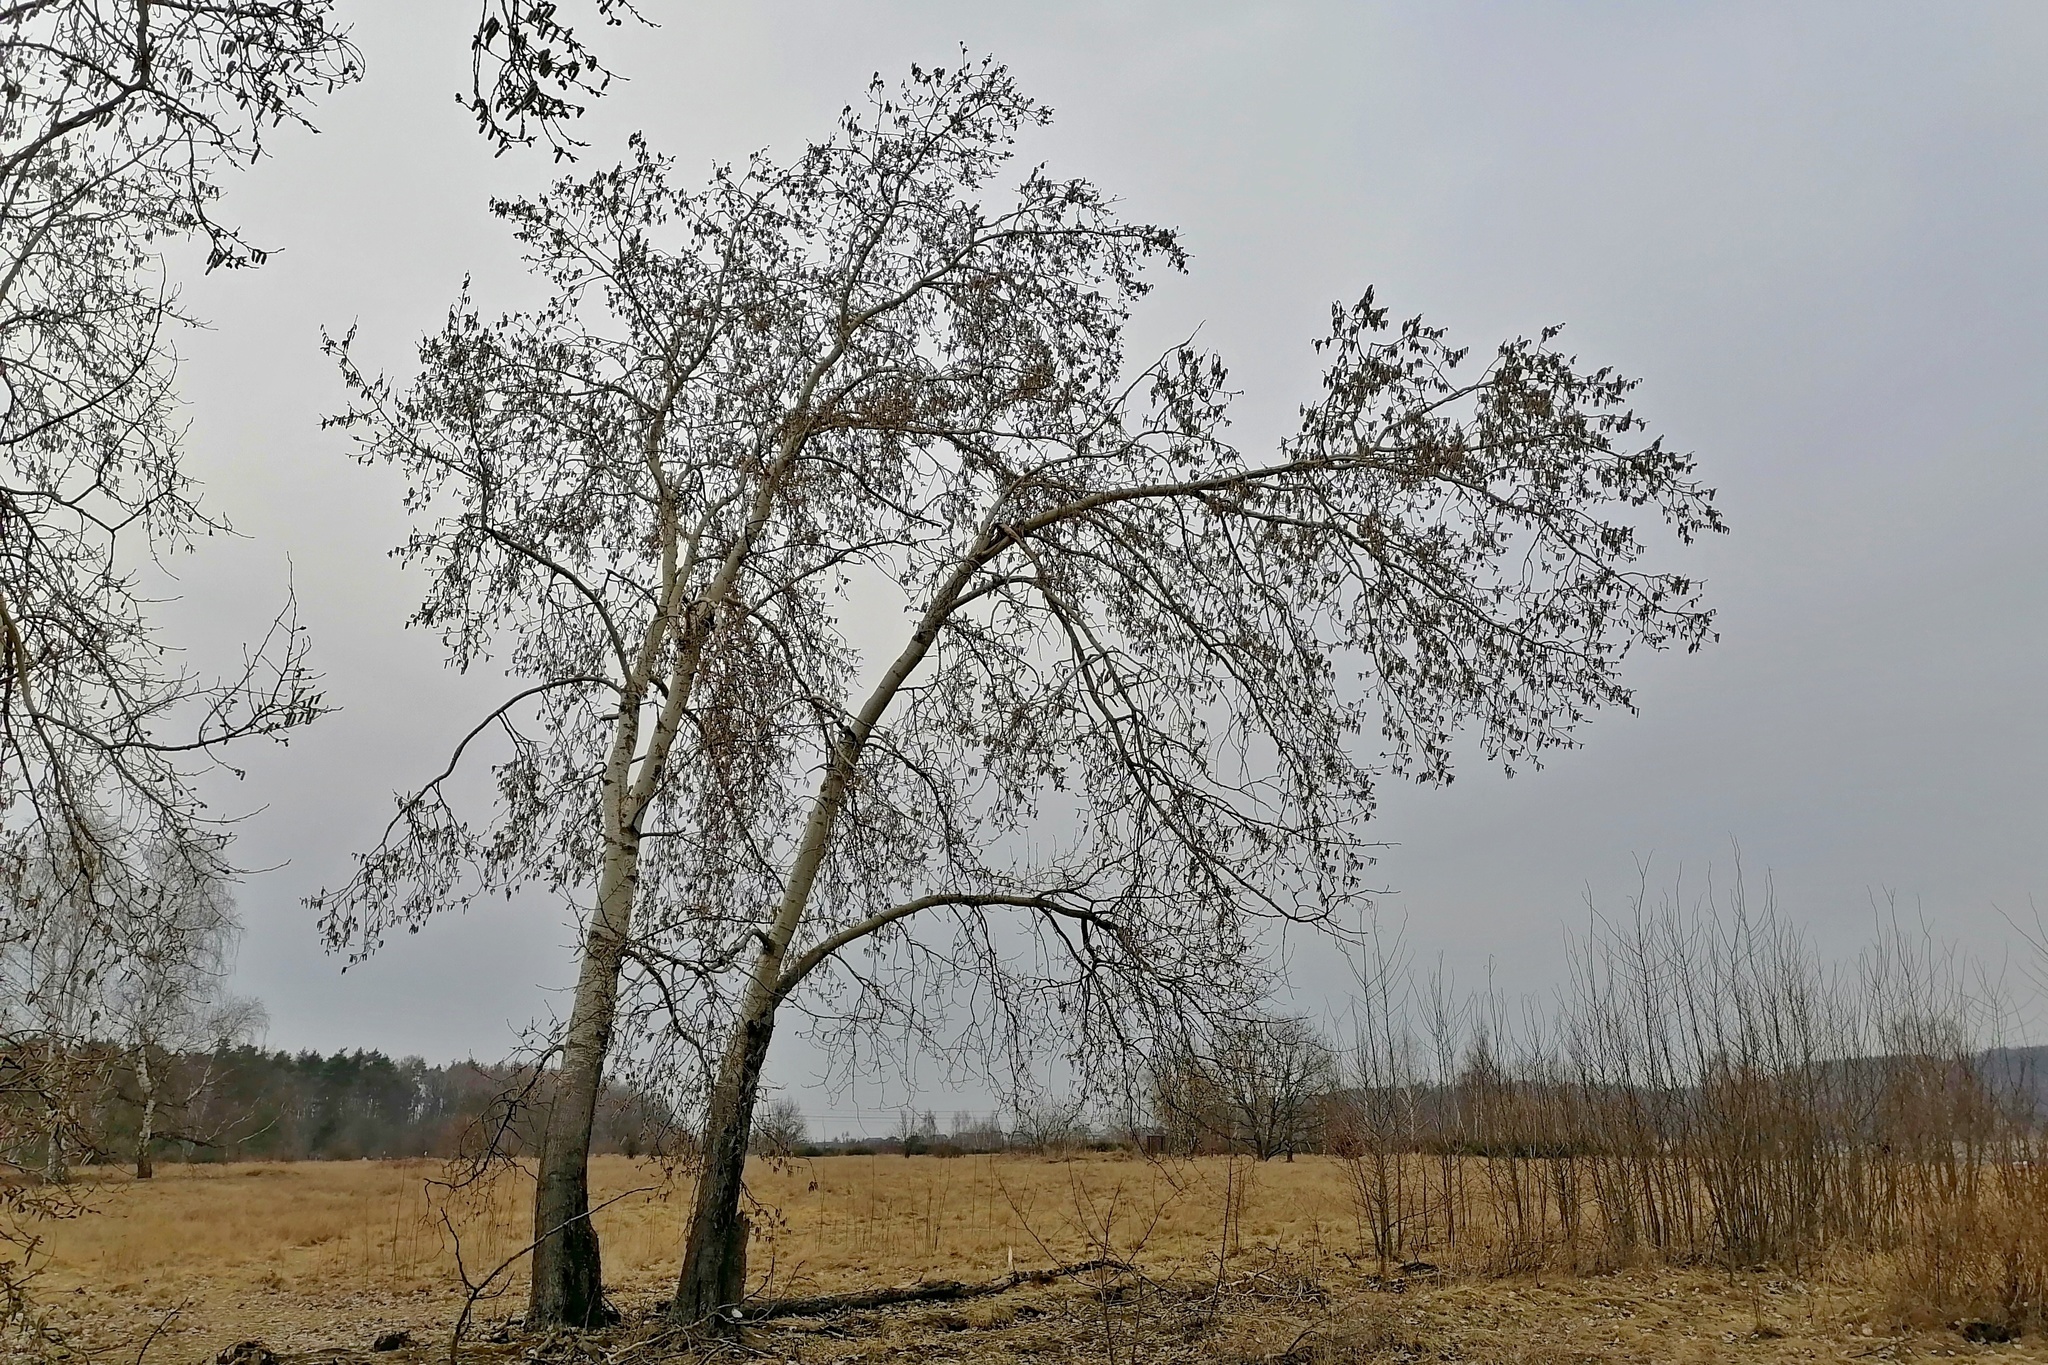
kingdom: Plantae
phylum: Tracheophyta
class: Magnoliopsida
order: Malpighiales
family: Salicaceae
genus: Populus
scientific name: Populus tremula
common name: European aspen
